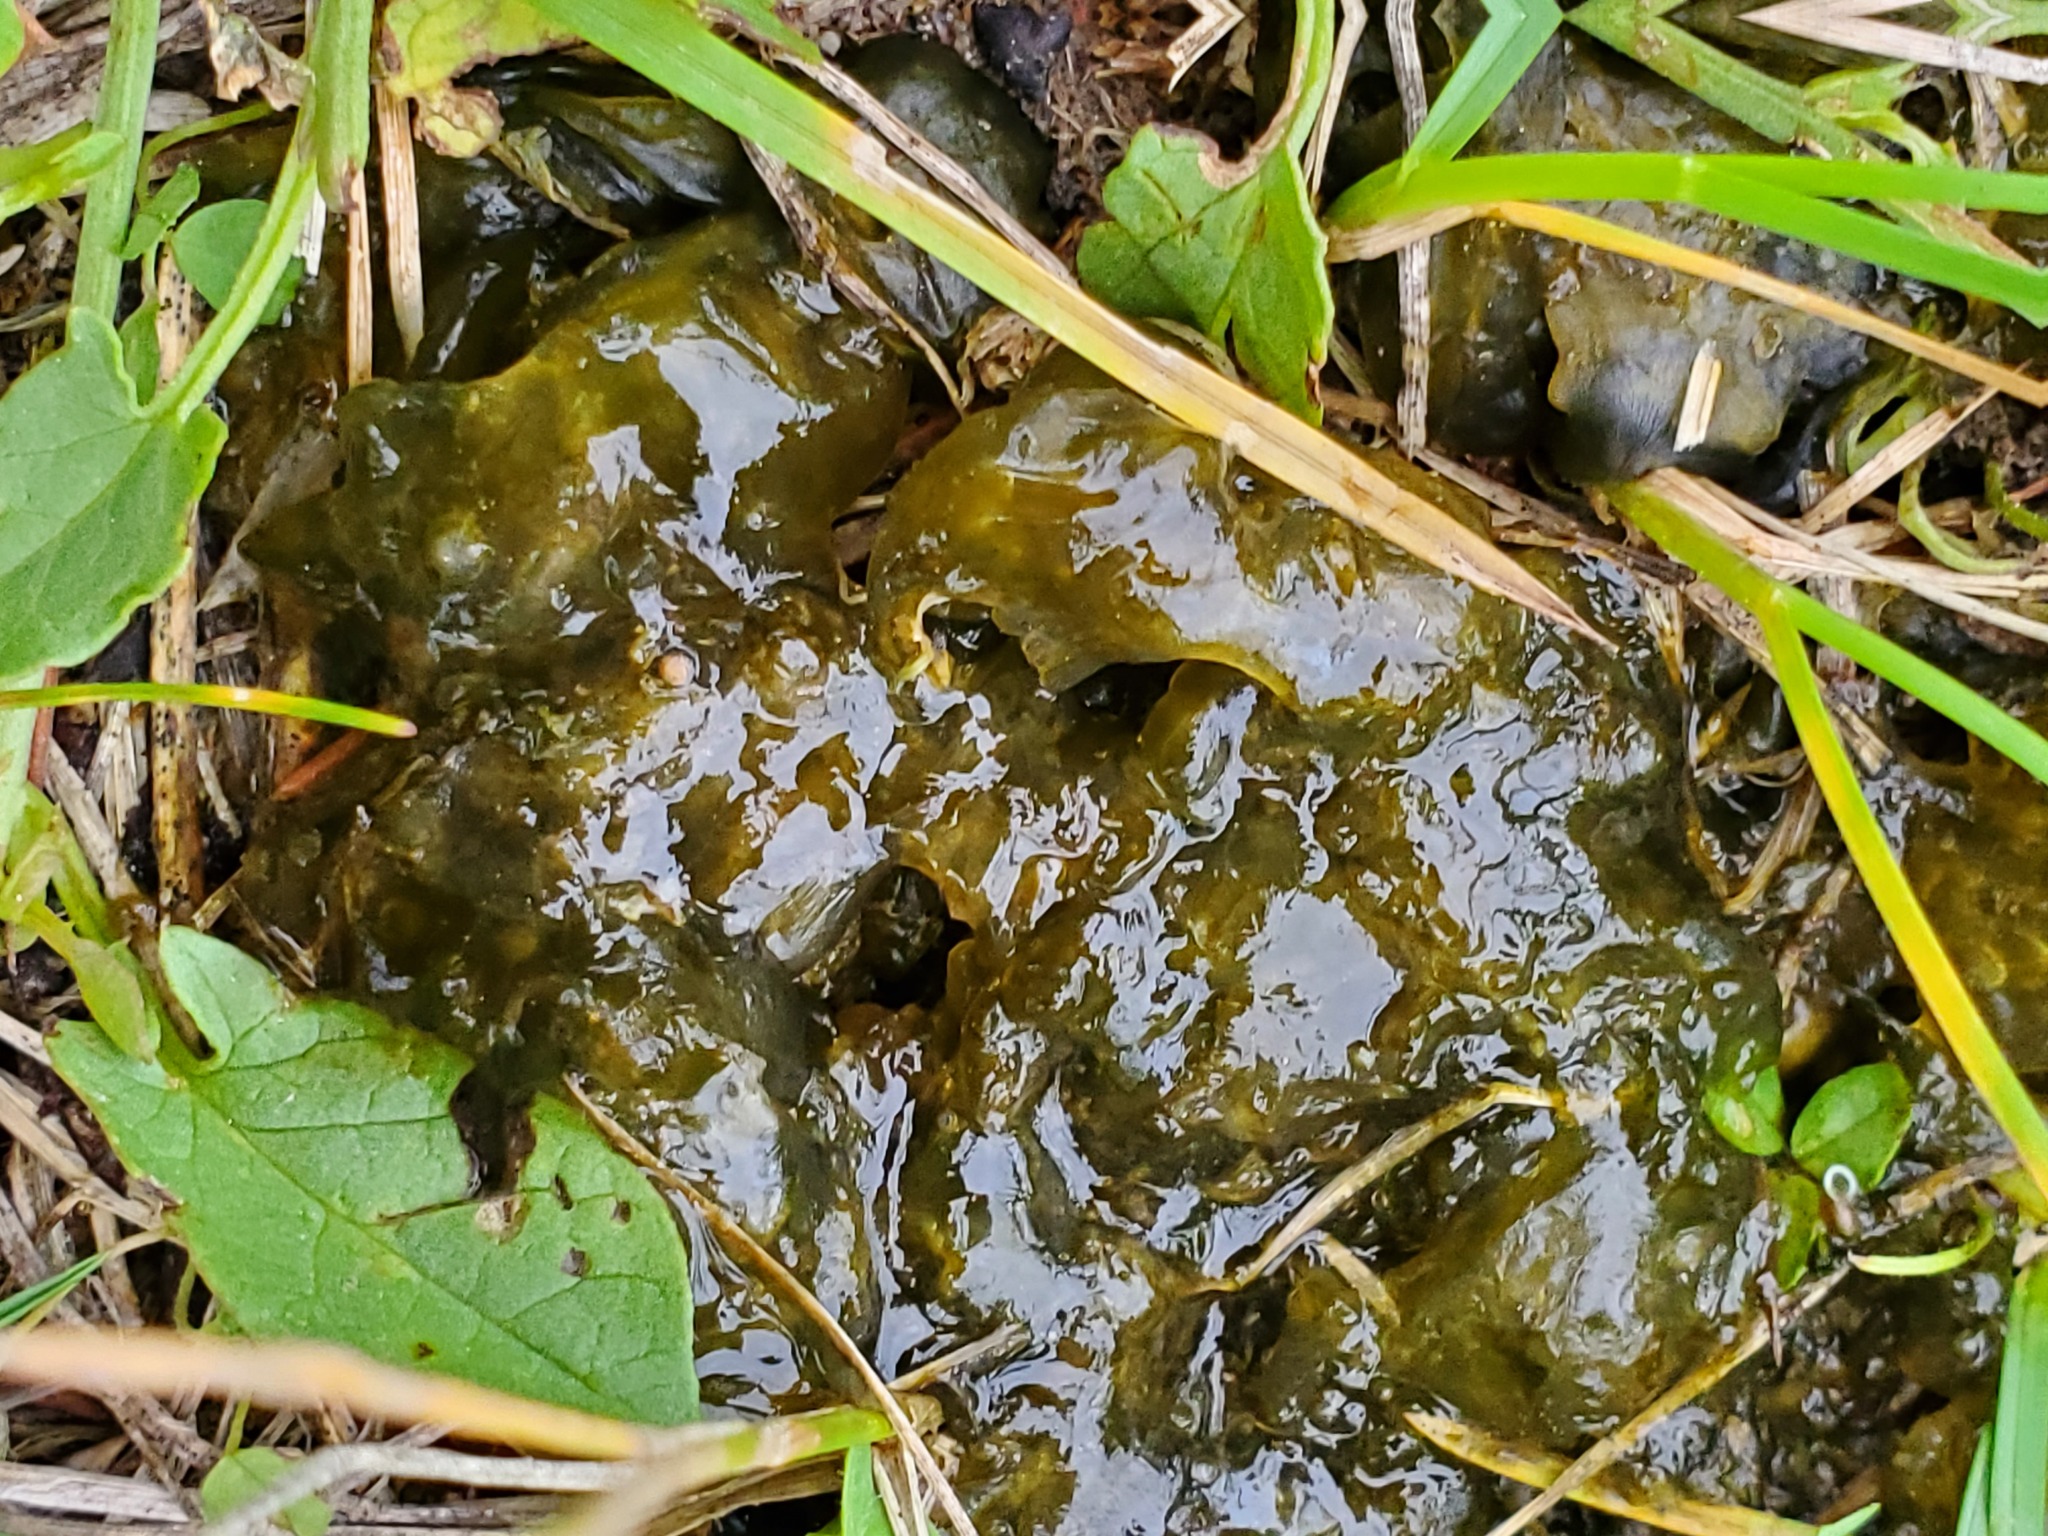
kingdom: Bacteria
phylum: Cyanobacteria
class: Cyanobacteriia
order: Cyanobacteriales
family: Nostocaceae
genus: Nostoc
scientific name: Nostoc commune
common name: Star jelly
